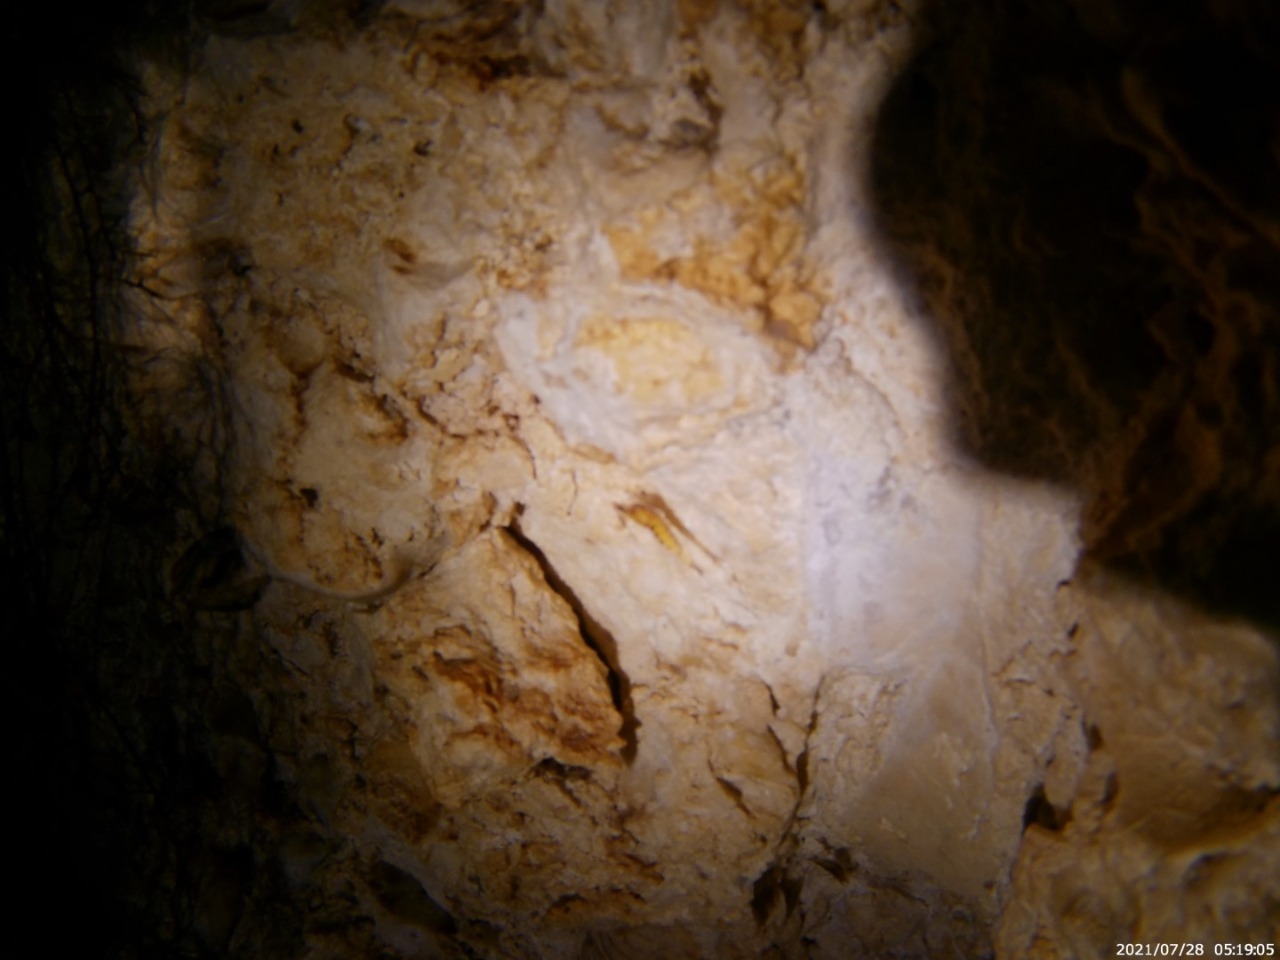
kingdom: Animalia
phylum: Arthropoda
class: Malacostraca
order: Decapoda
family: Atyidae
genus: Typhlatya
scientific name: Typhlatya mitchelli
